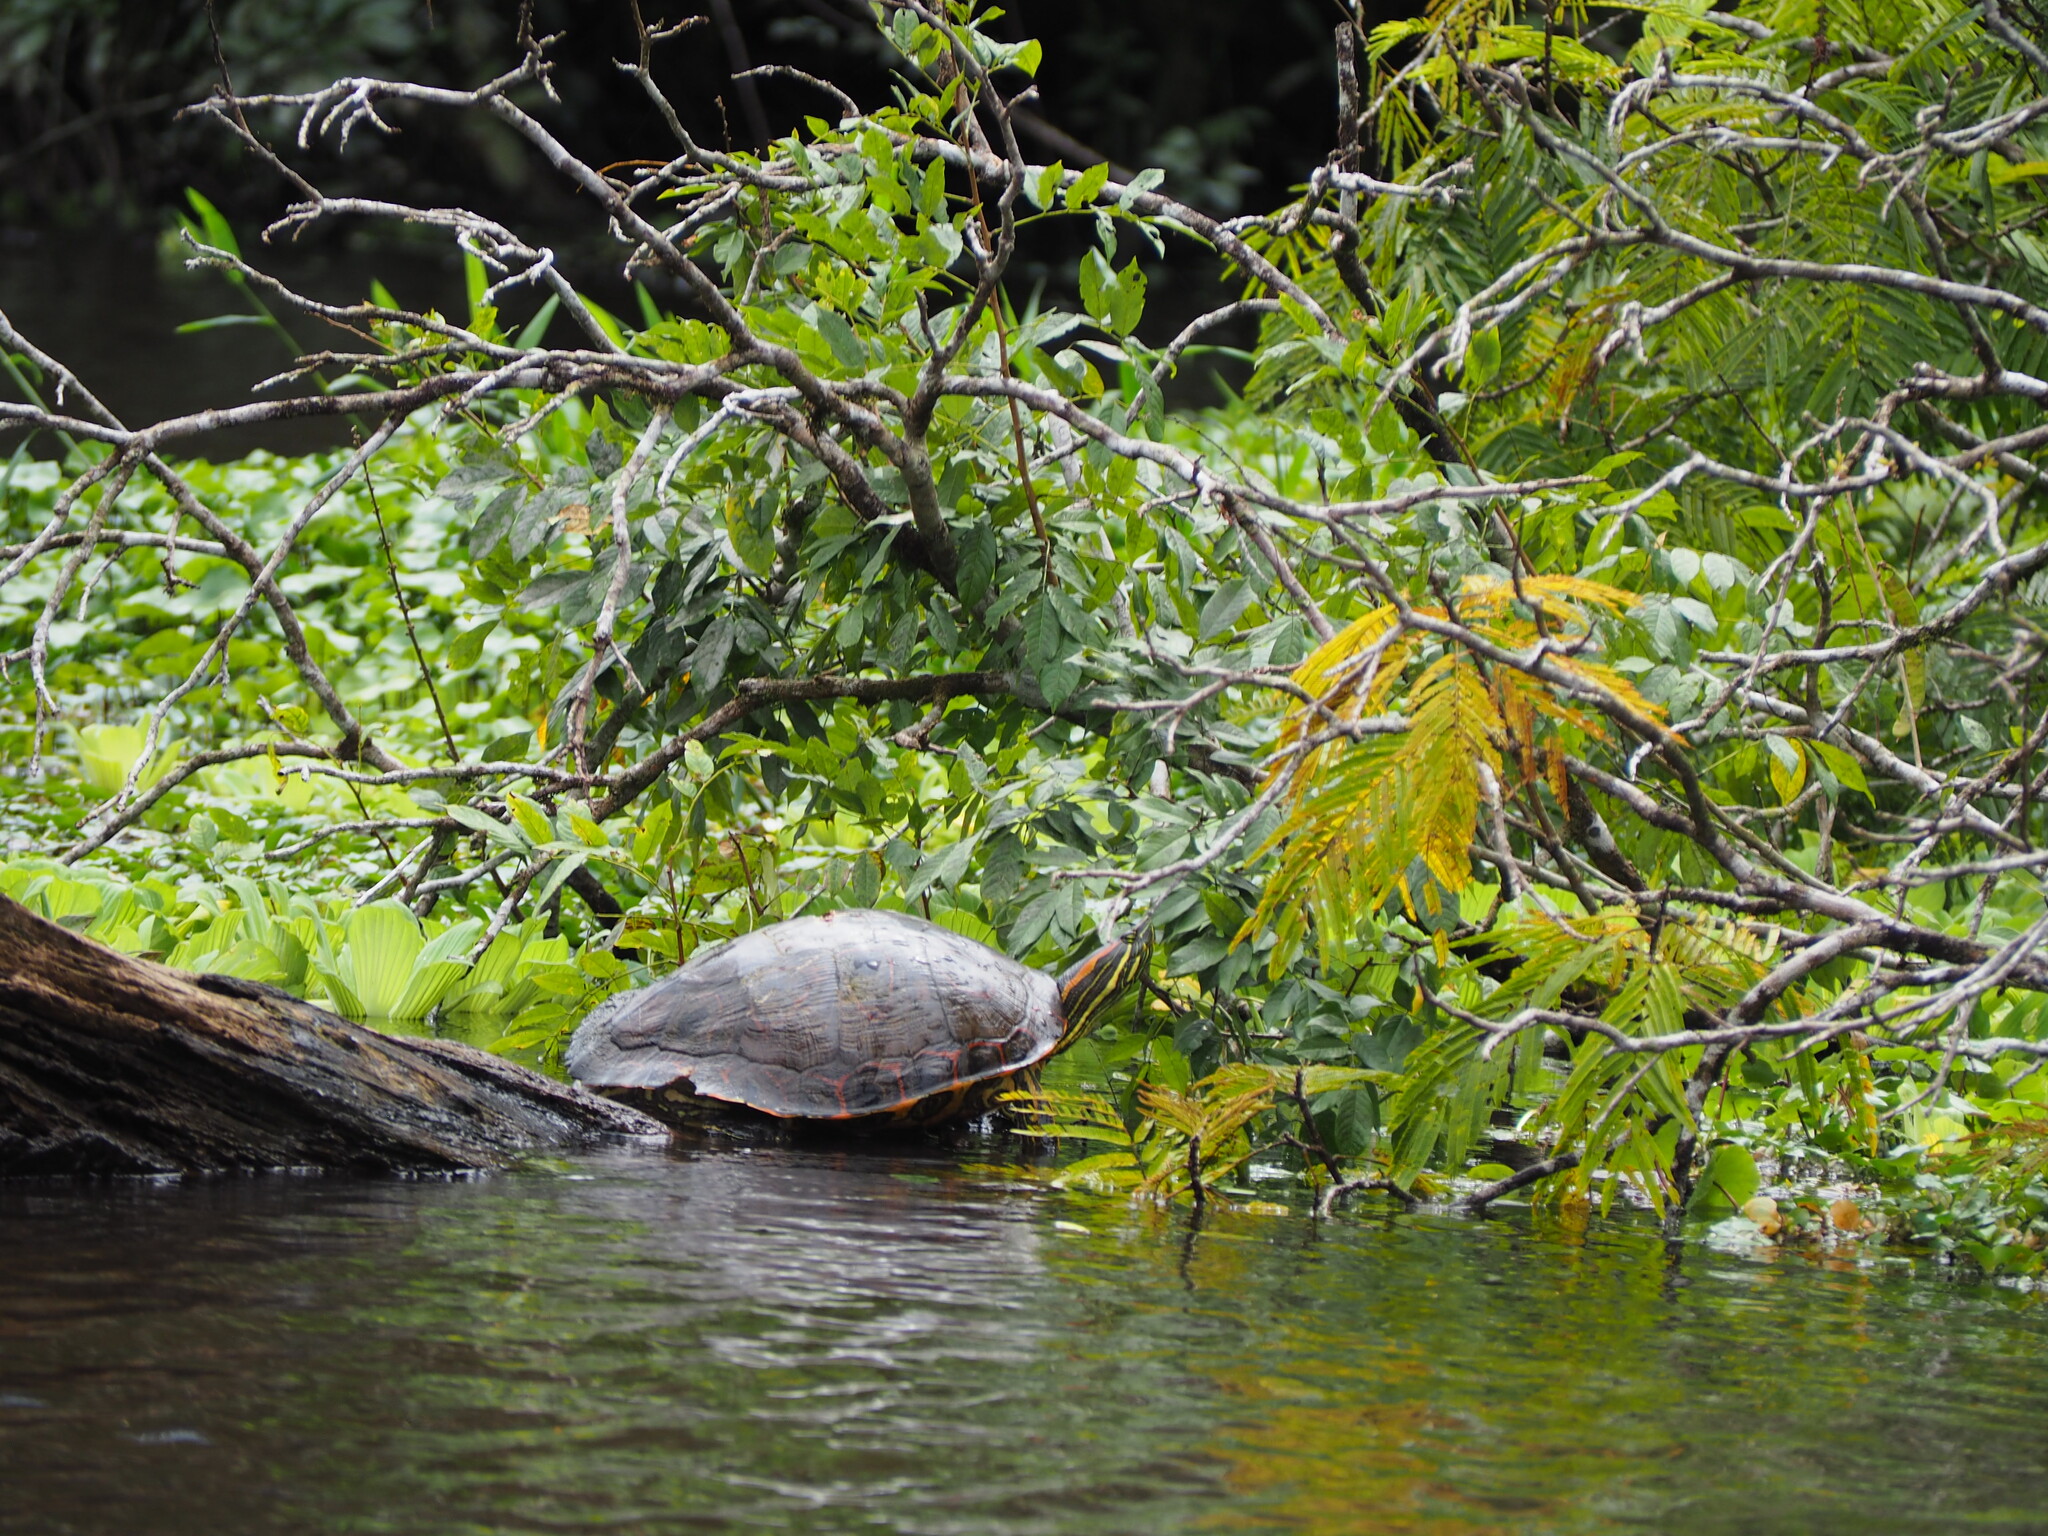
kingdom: Animalia
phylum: Chordata
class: Testudines
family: Emydidae
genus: Trachemys
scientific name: Trachemys venusta
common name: Mesoamerican slider
